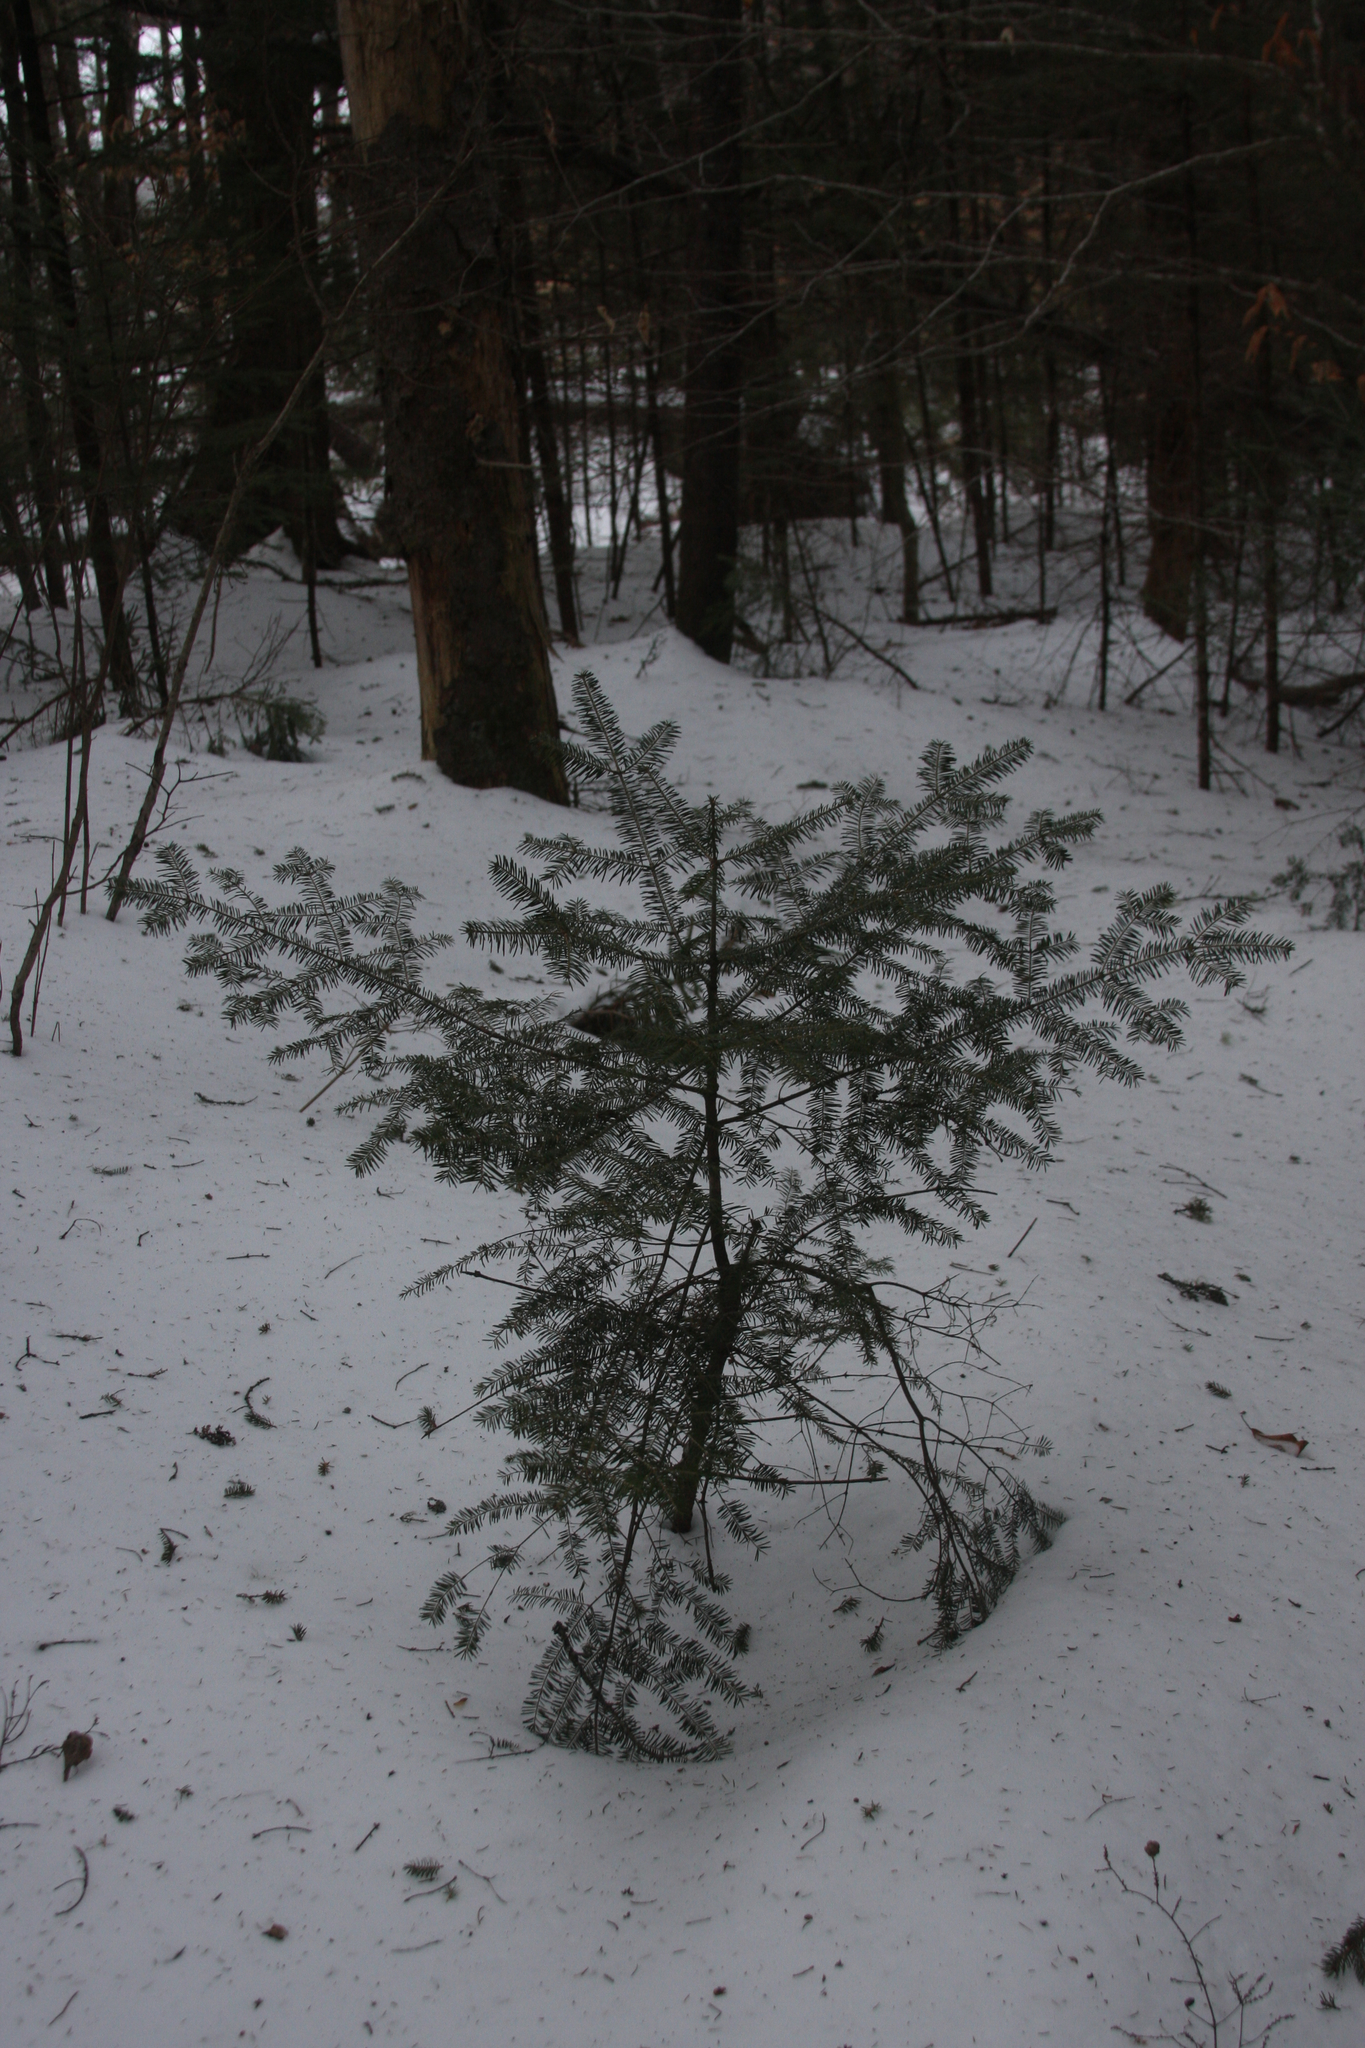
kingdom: Plantae
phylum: Tracheophyta
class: Pinopsida
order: Pinales
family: Pinaceae
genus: Abies
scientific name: Abies balsamea
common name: Balsam fir
